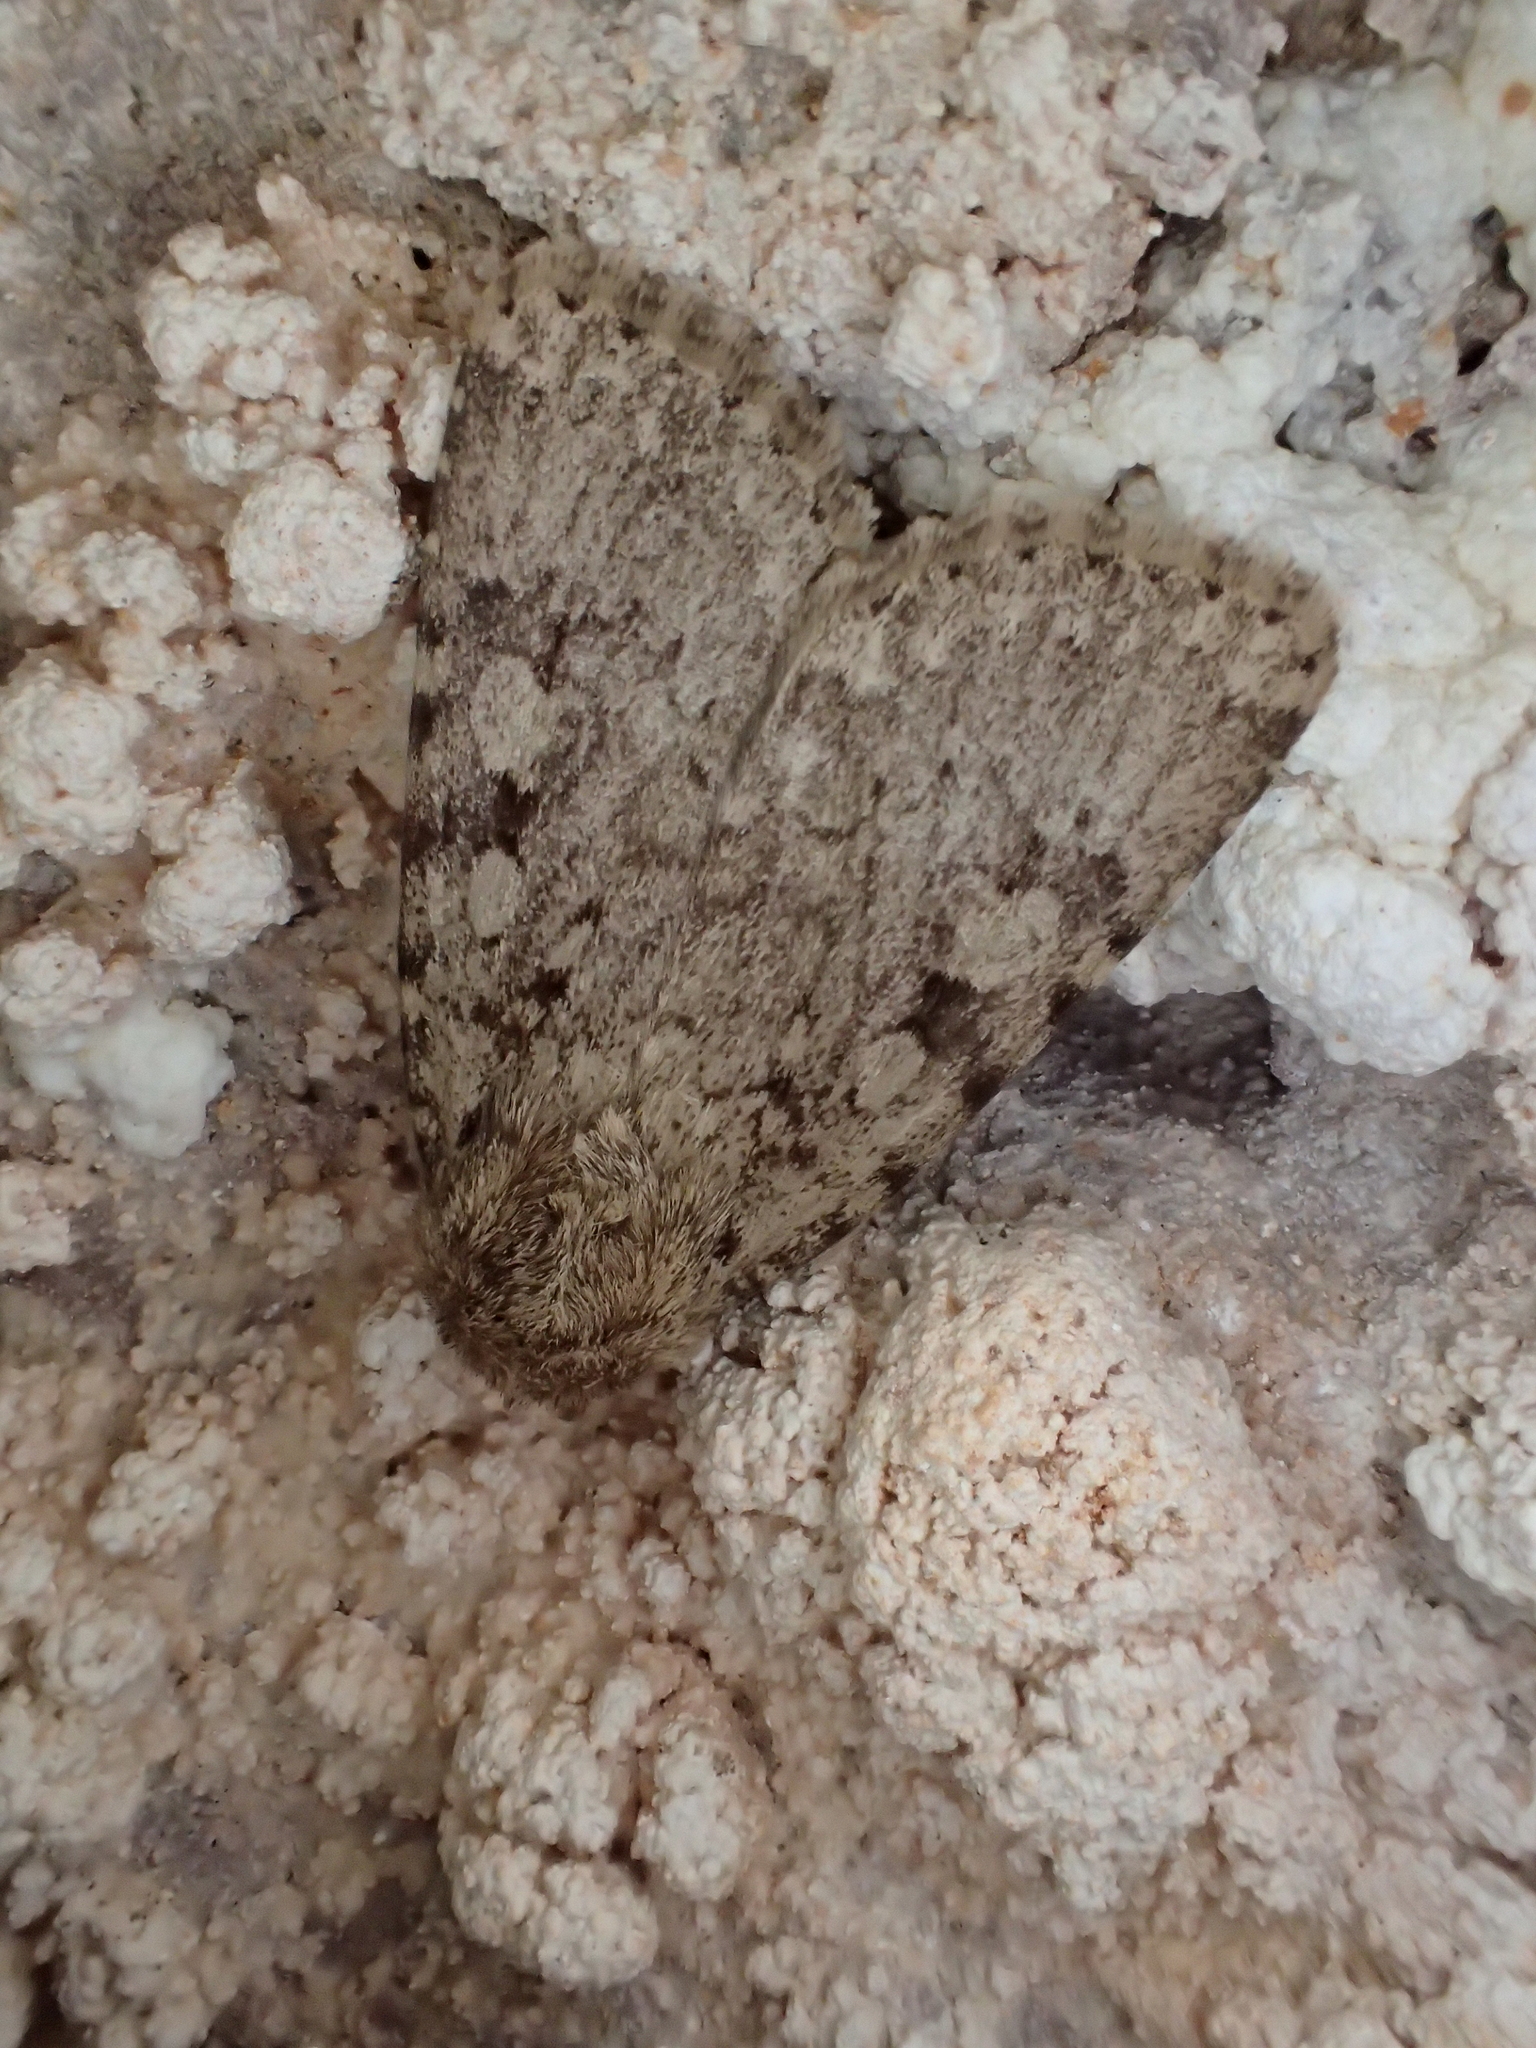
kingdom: Animalia
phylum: Arthropoda
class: Insecta
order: Lepidoptera
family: Noctuidae
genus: Amphipyra
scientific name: Amphipyra effusa
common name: Landguard ochre
